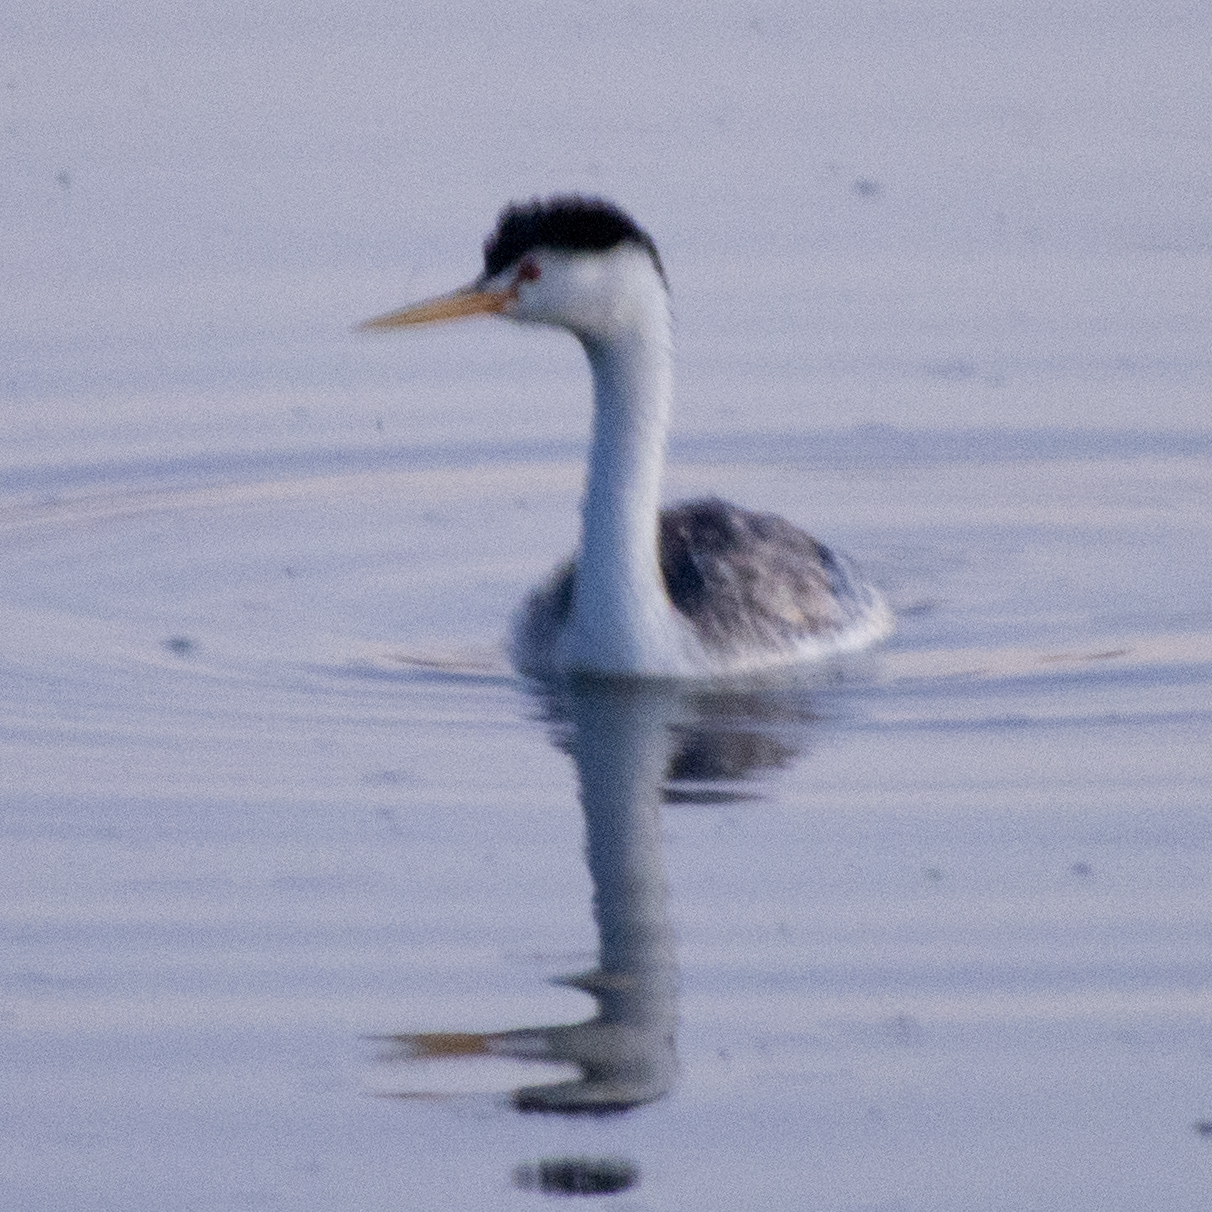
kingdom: Animalia
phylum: Chordata
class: Aves
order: Podicipediformes
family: Podicipedidae
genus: Aechmophorus
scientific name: Aechmophorus clarkii
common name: Clark's grebe
